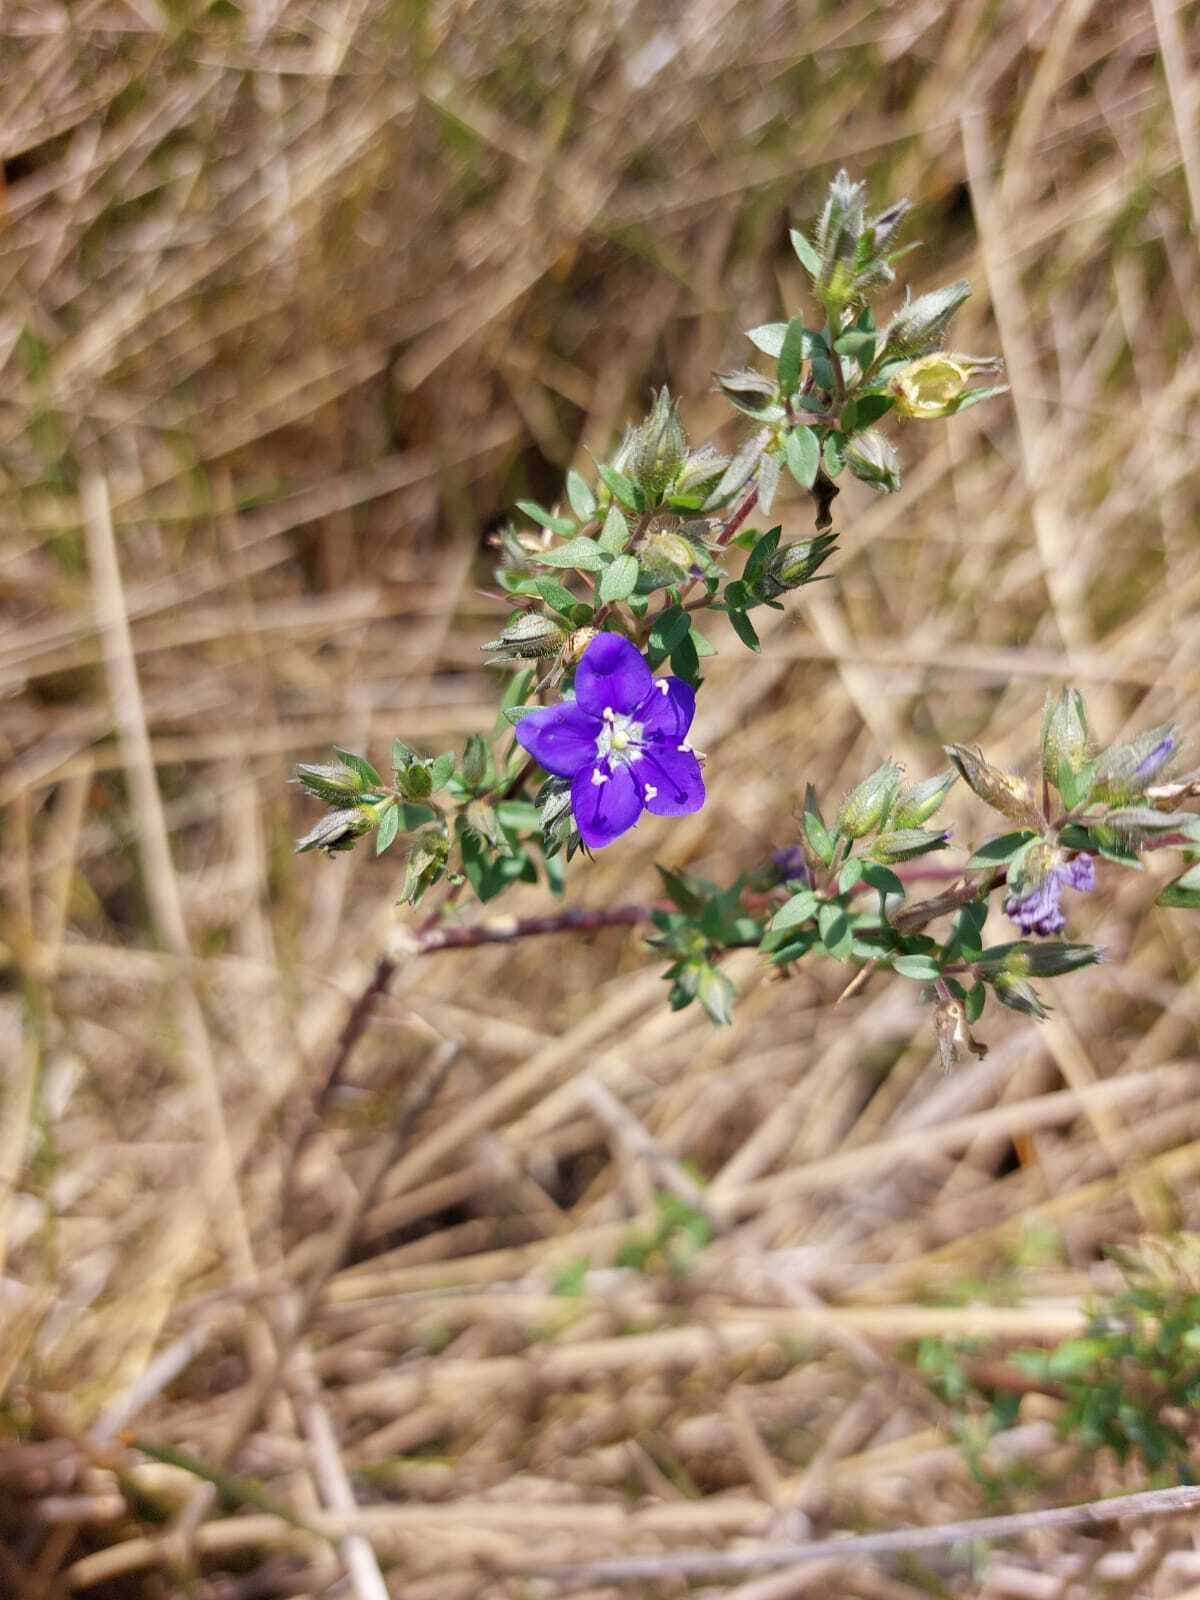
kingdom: Plantae
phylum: Tracheophyta
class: Magnoliopsida
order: Solanales
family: Hydroleaceae
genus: Hydrolea
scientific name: Hydrolea spinosa
